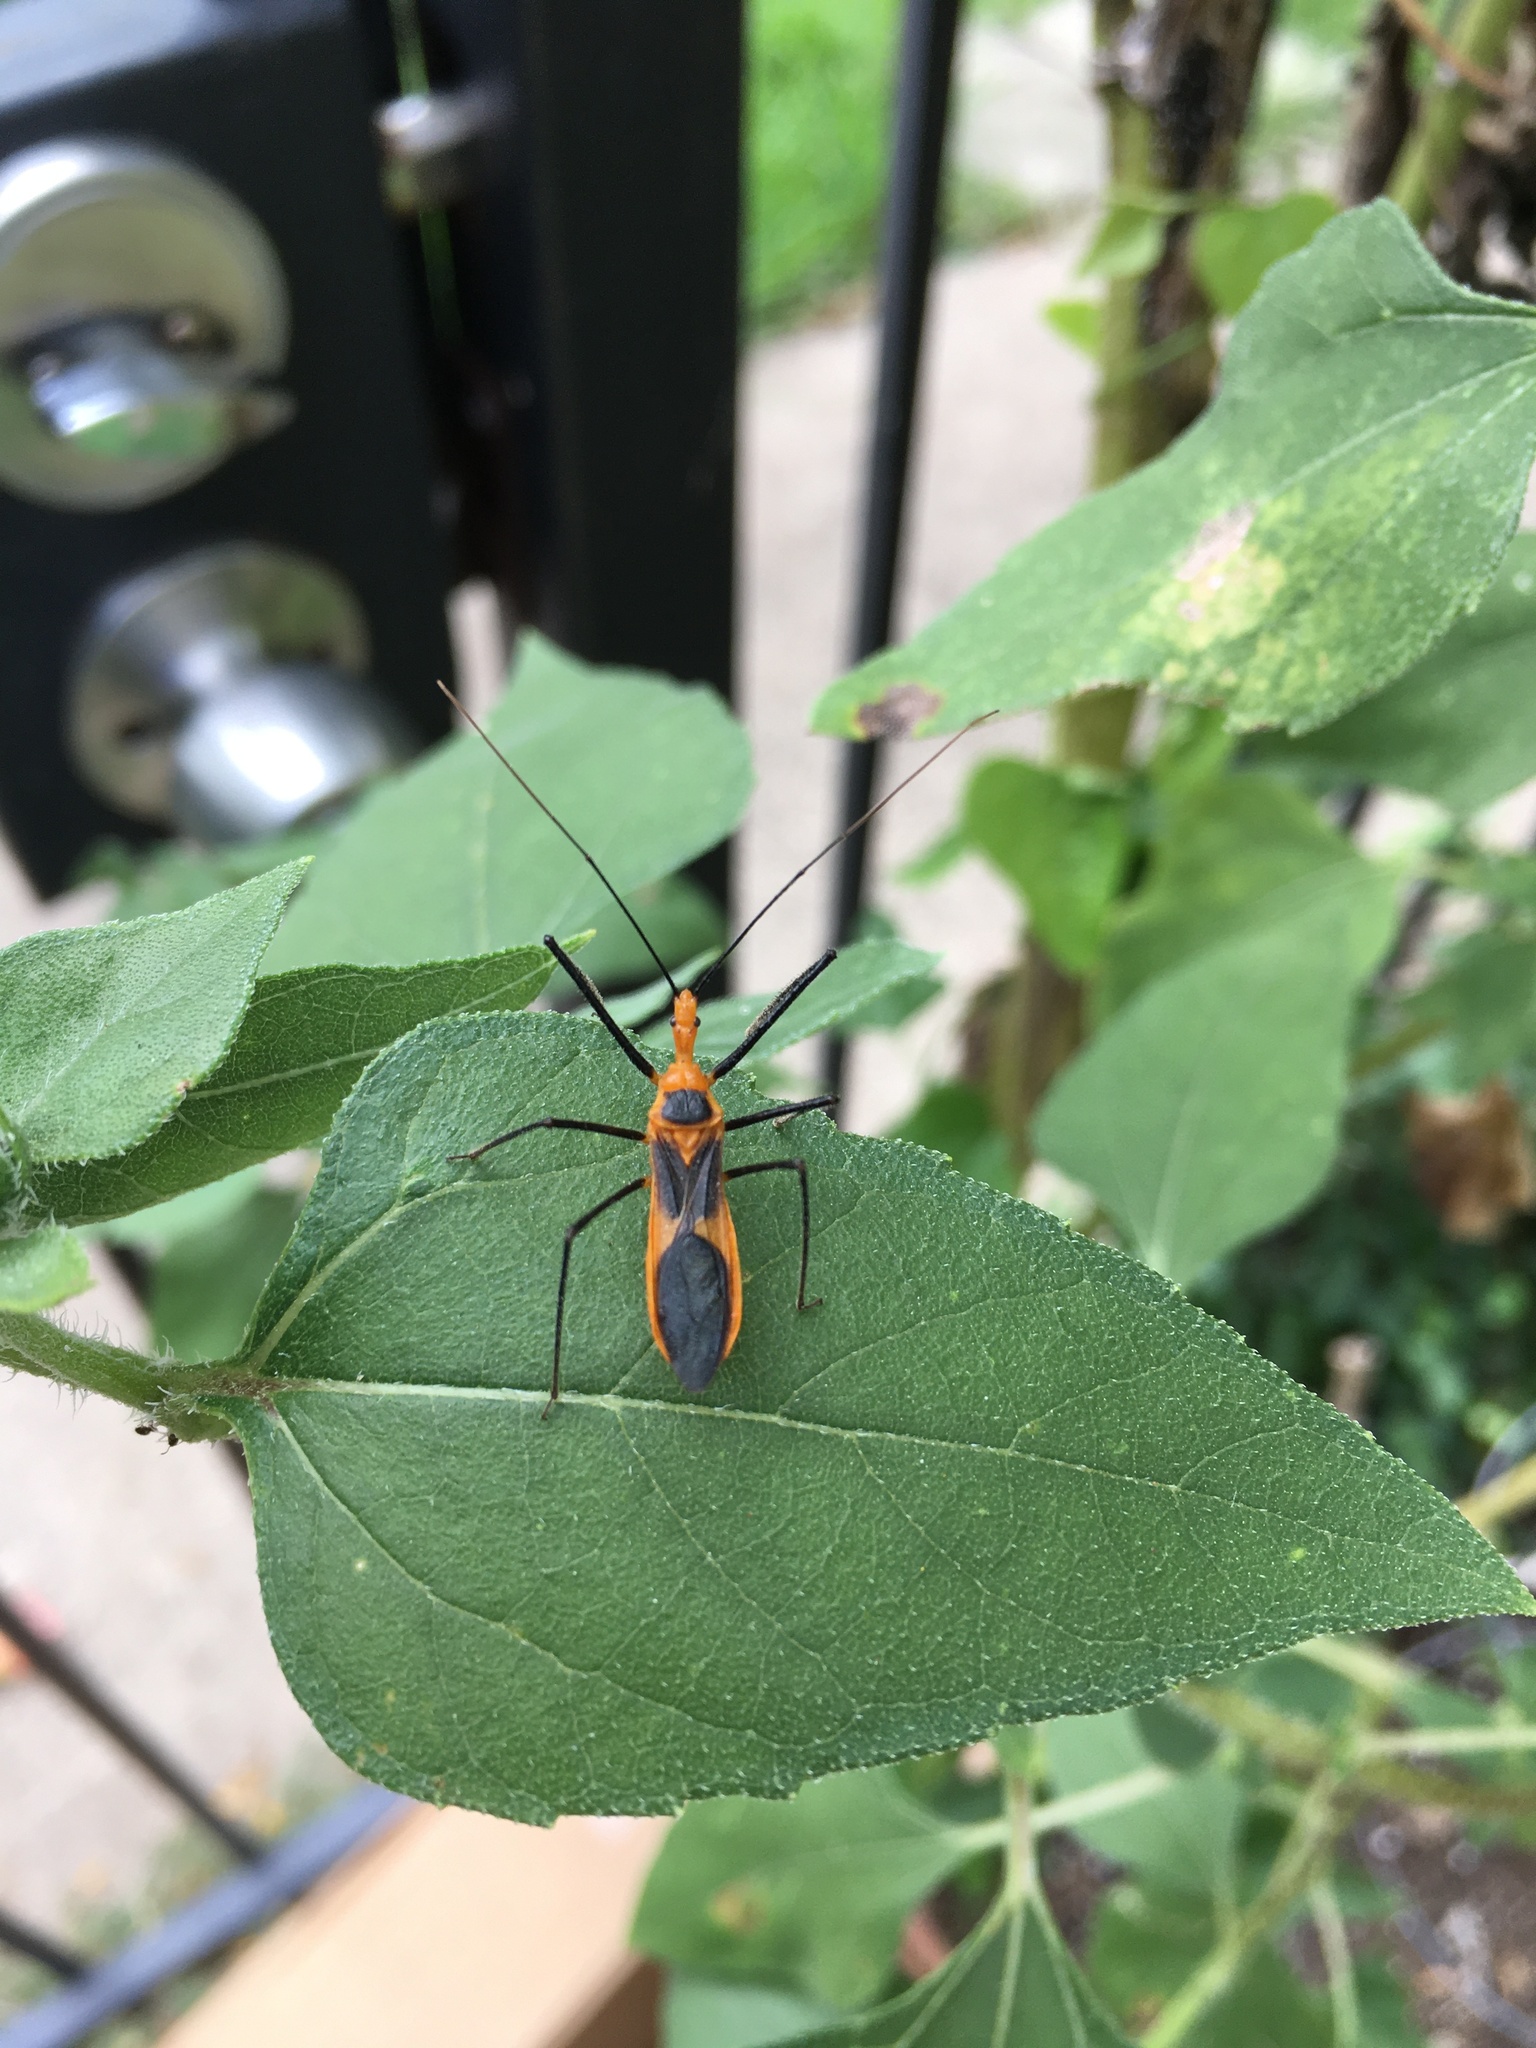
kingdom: Animalia
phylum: Arthropoda
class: Insecta
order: Hemiptera
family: Reduviidae
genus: Zelus
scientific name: Zelus longipes
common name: Milkweed assassin bug
